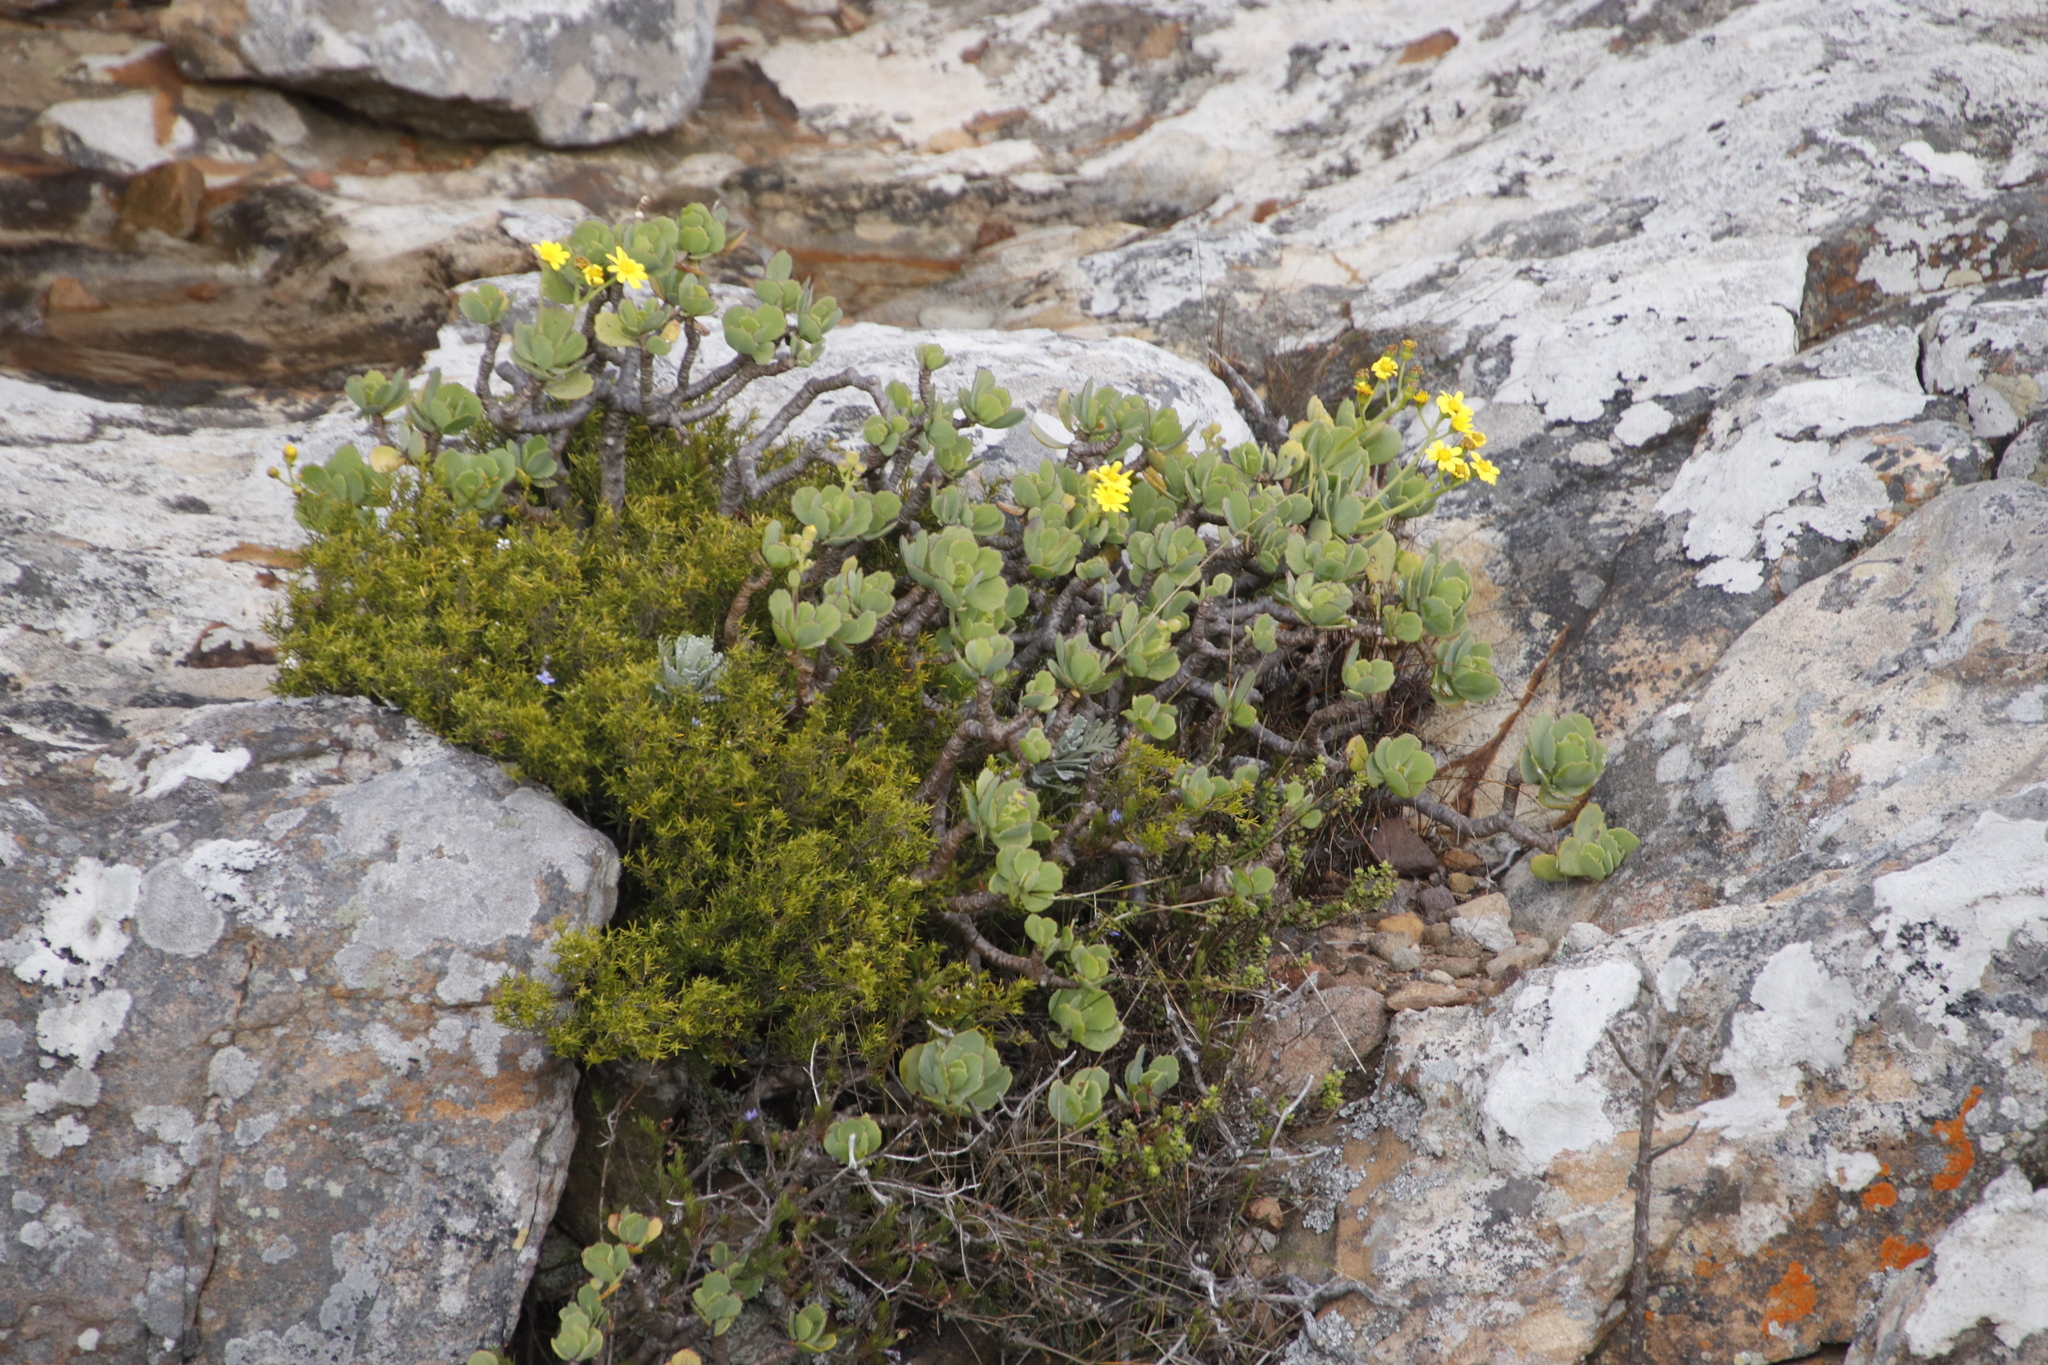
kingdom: Plantae
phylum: Tracheophyta
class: Magnoliopsida
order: Asterales
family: Asteraceae
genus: Othonna
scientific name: Othonna dentata
